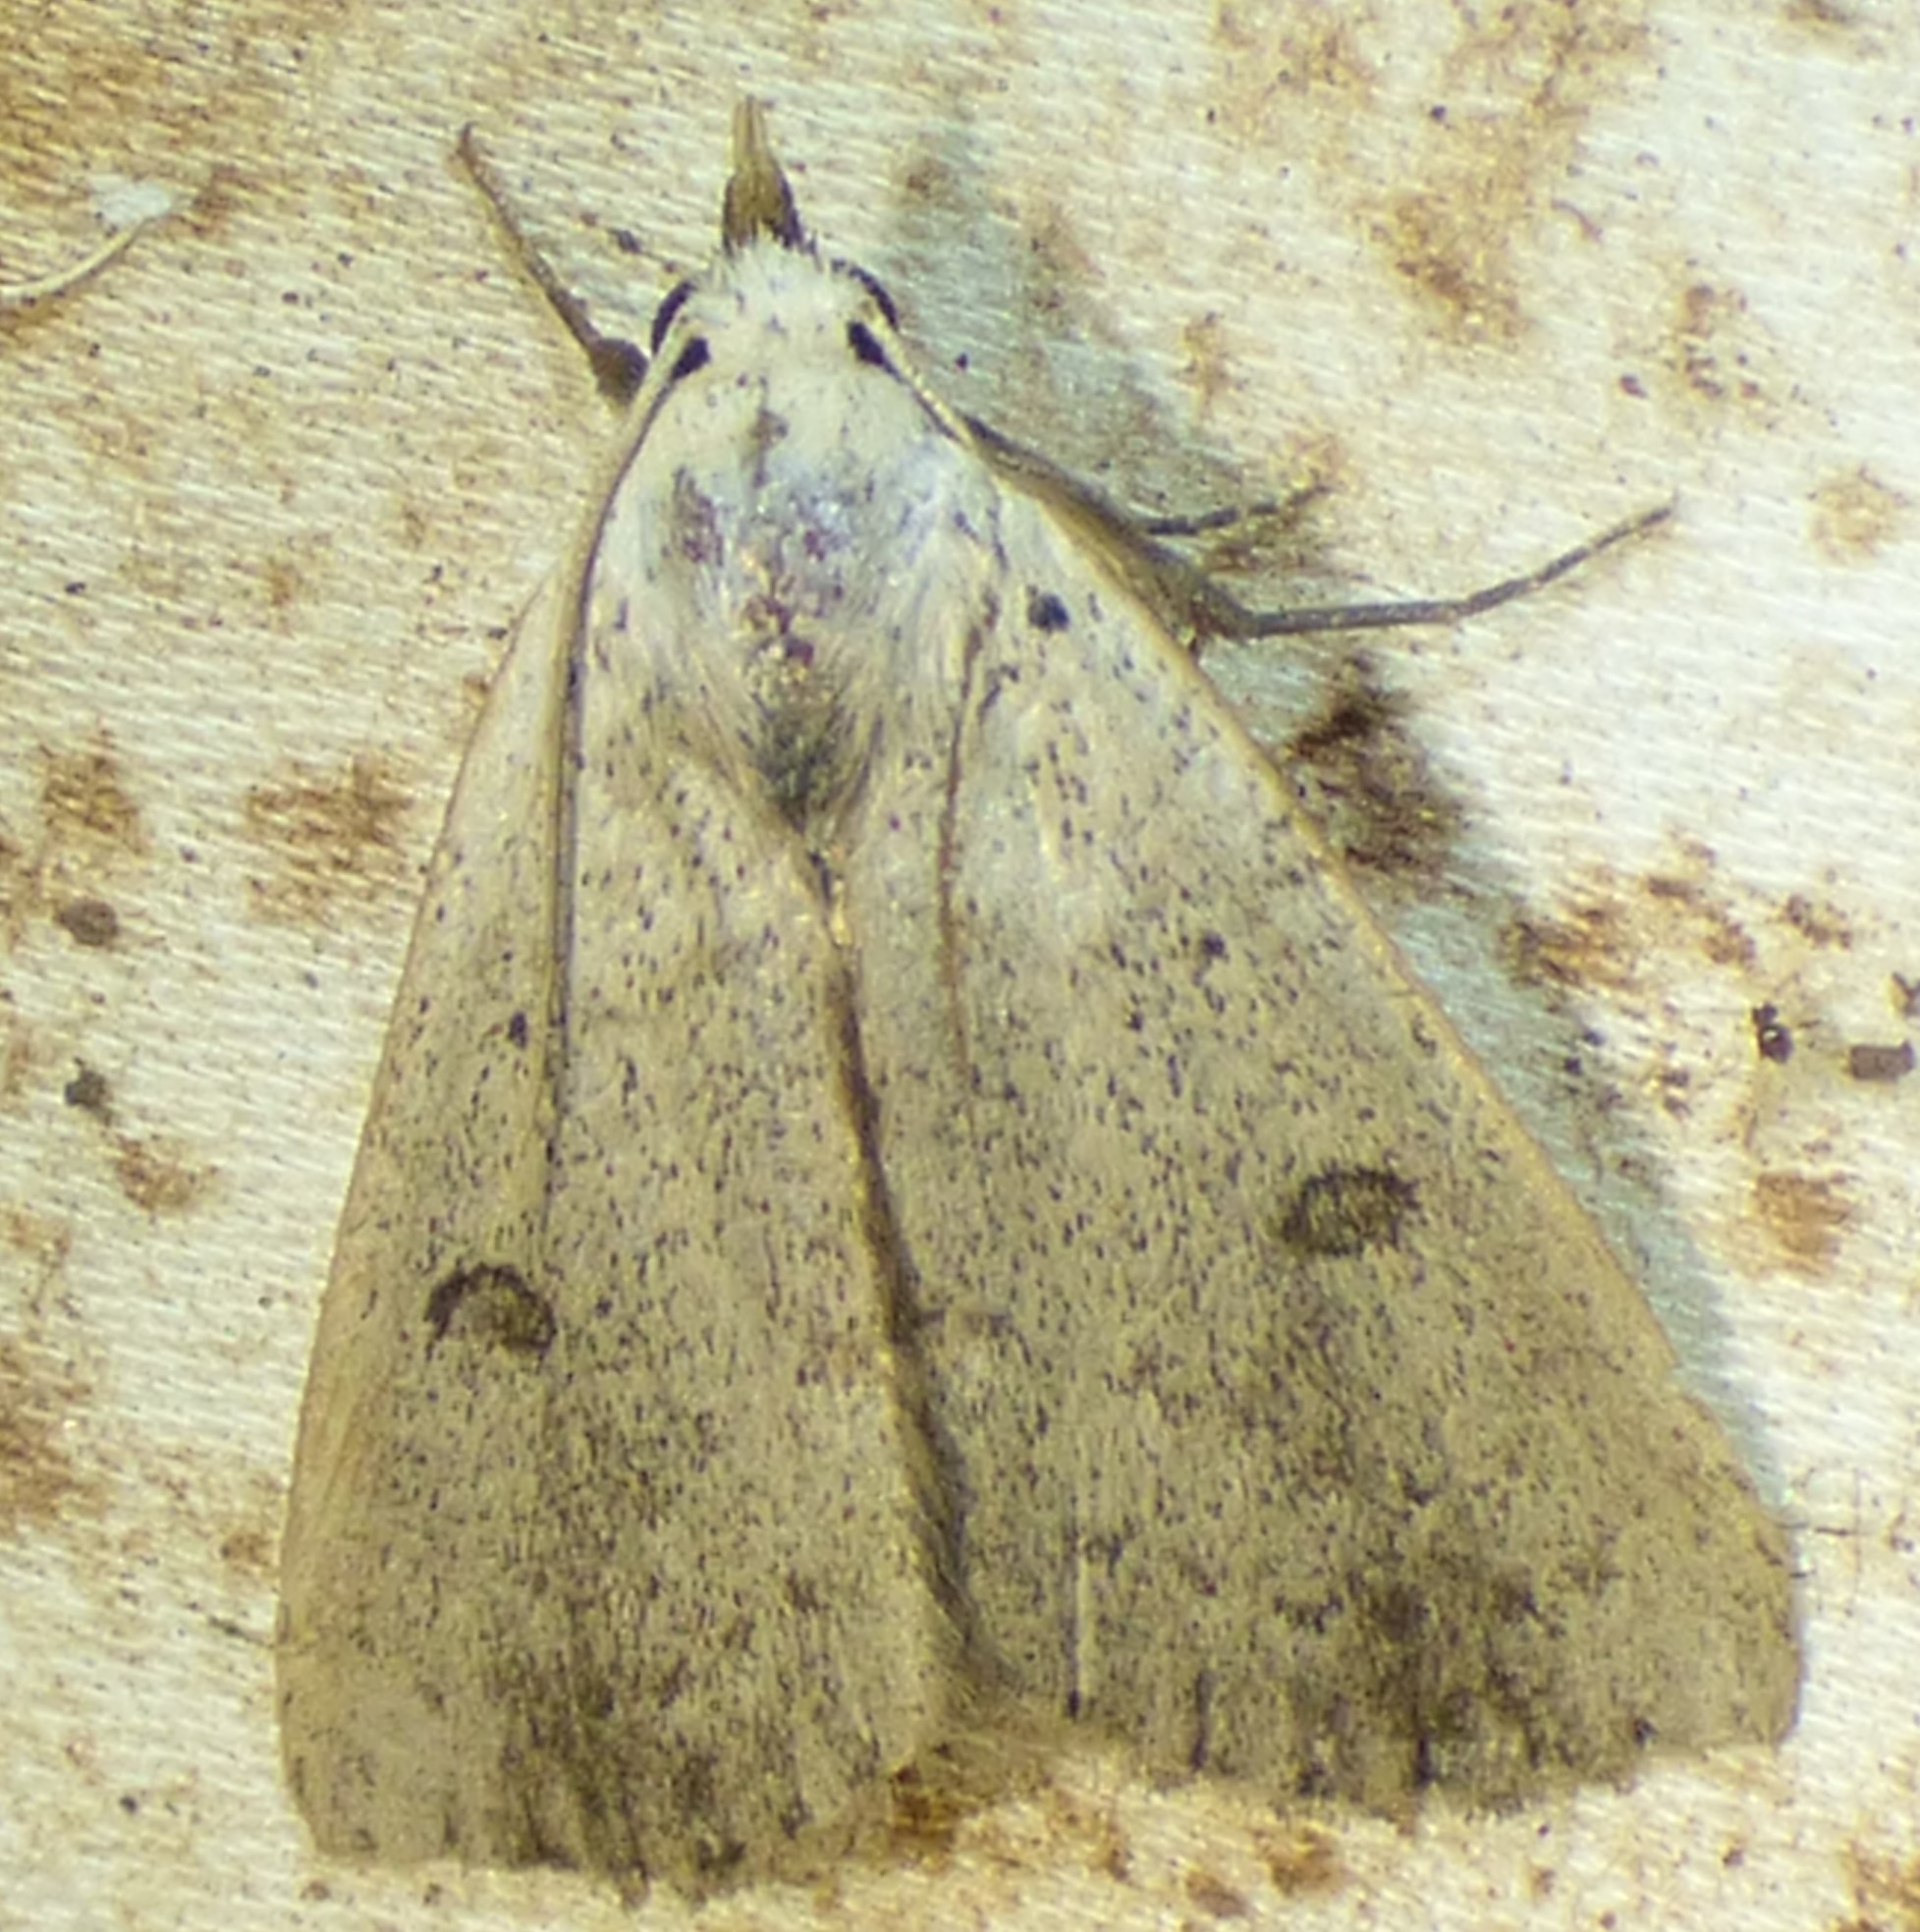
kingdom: Animalia
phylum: Arthropoda
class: Insecta
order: Lepidoptera
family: Erebidae
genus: Scolecocampa
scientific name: Scolecocampa liburna
